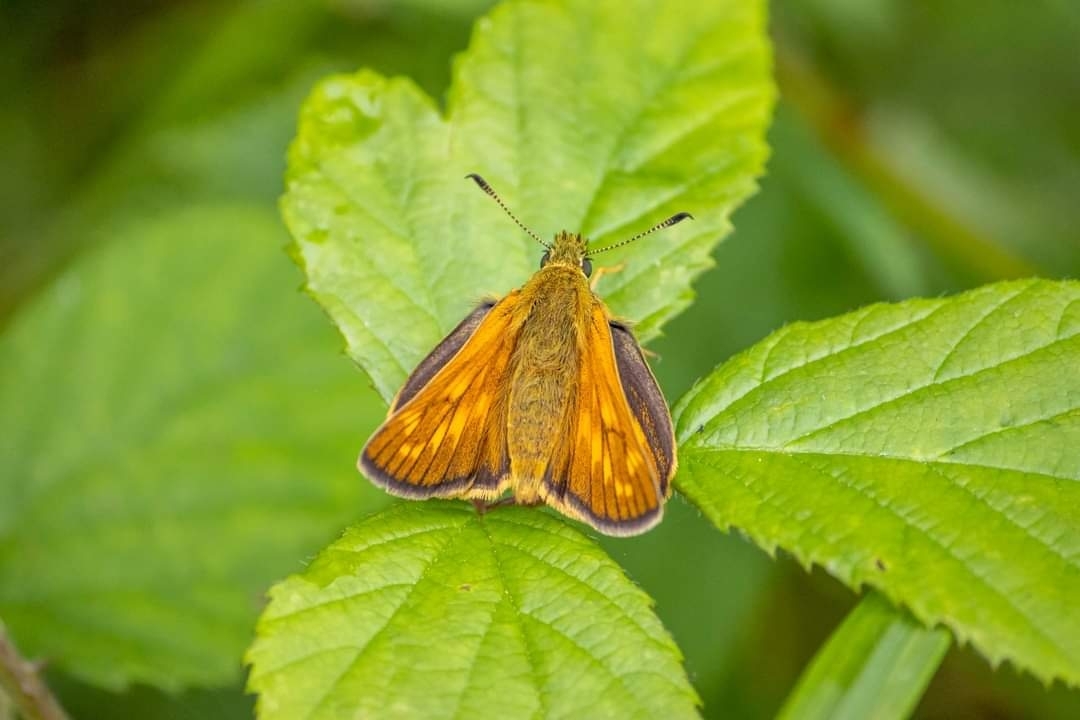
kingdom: Animalia
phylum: Arthropoda
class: Insecta
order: Lepidoptera
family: Hesperiidae
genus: Ochlodes
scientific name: Ochlodes venata
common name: Large skipper
